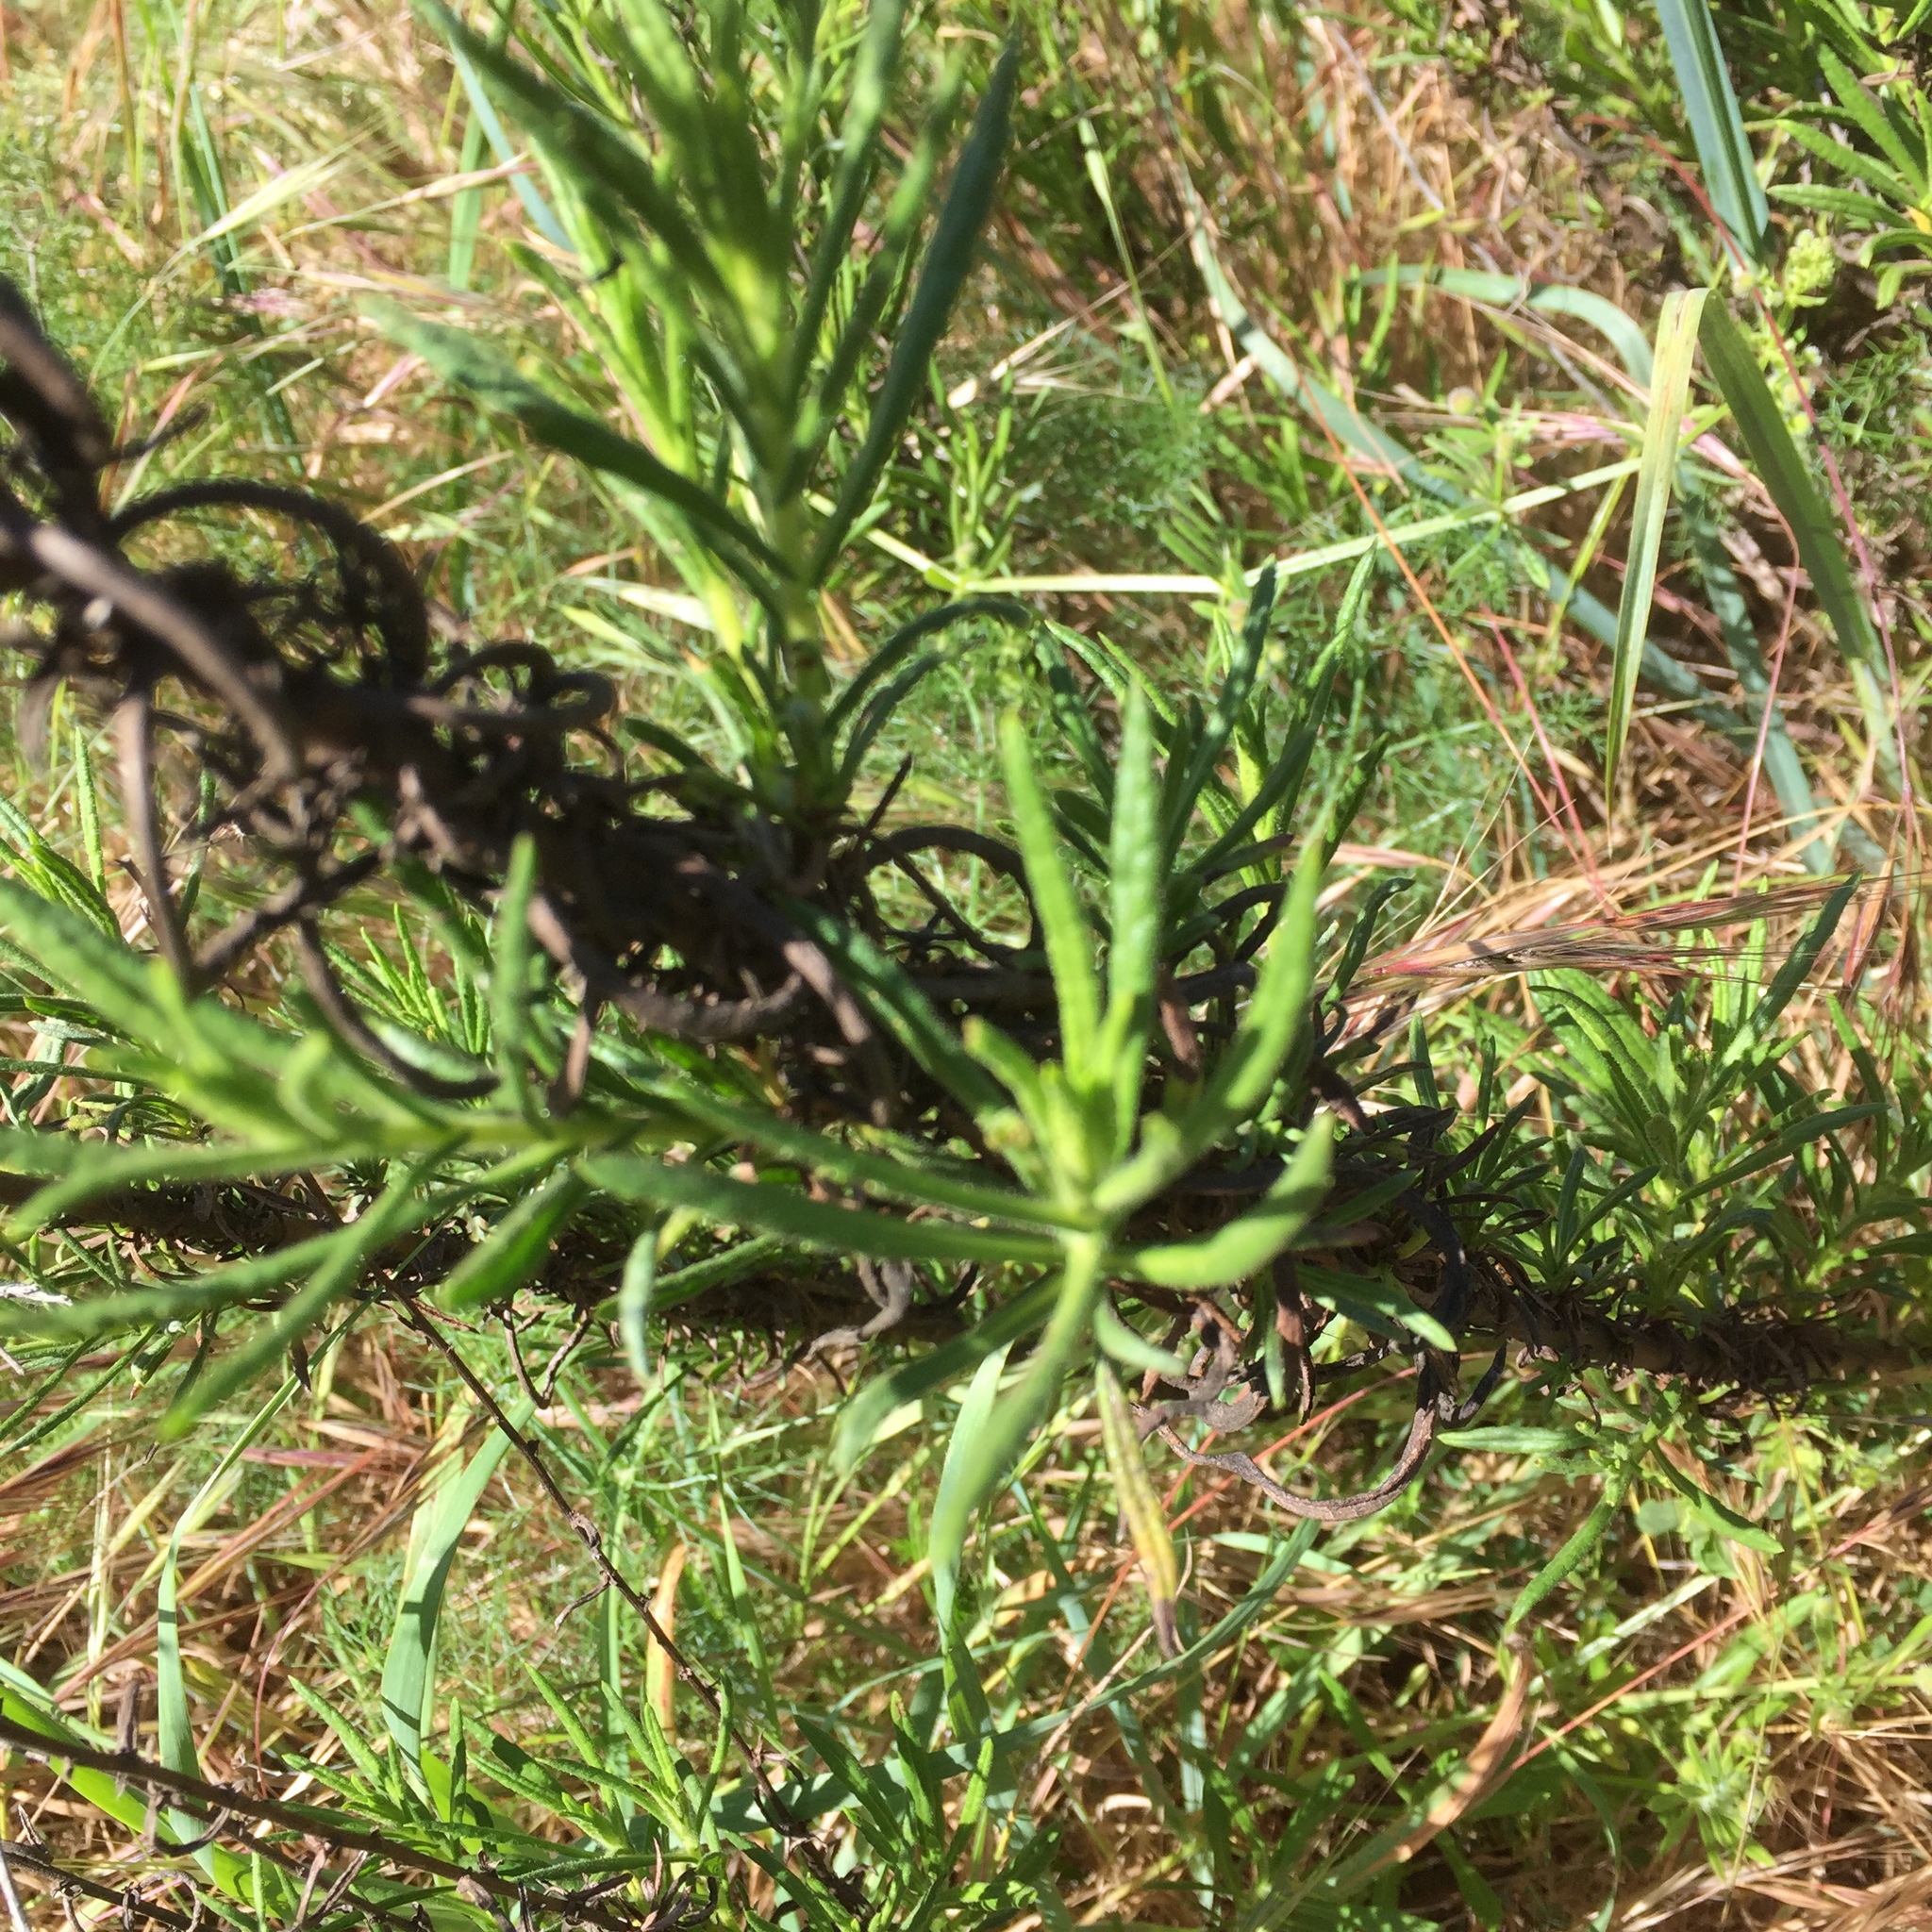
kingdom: Plantae
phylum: Tracheophyta
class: Magnoliopsida
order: Asterales
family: Asteraceae
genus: Erigeron
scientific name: Erigeron canadensis
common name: Canadian fleabane
